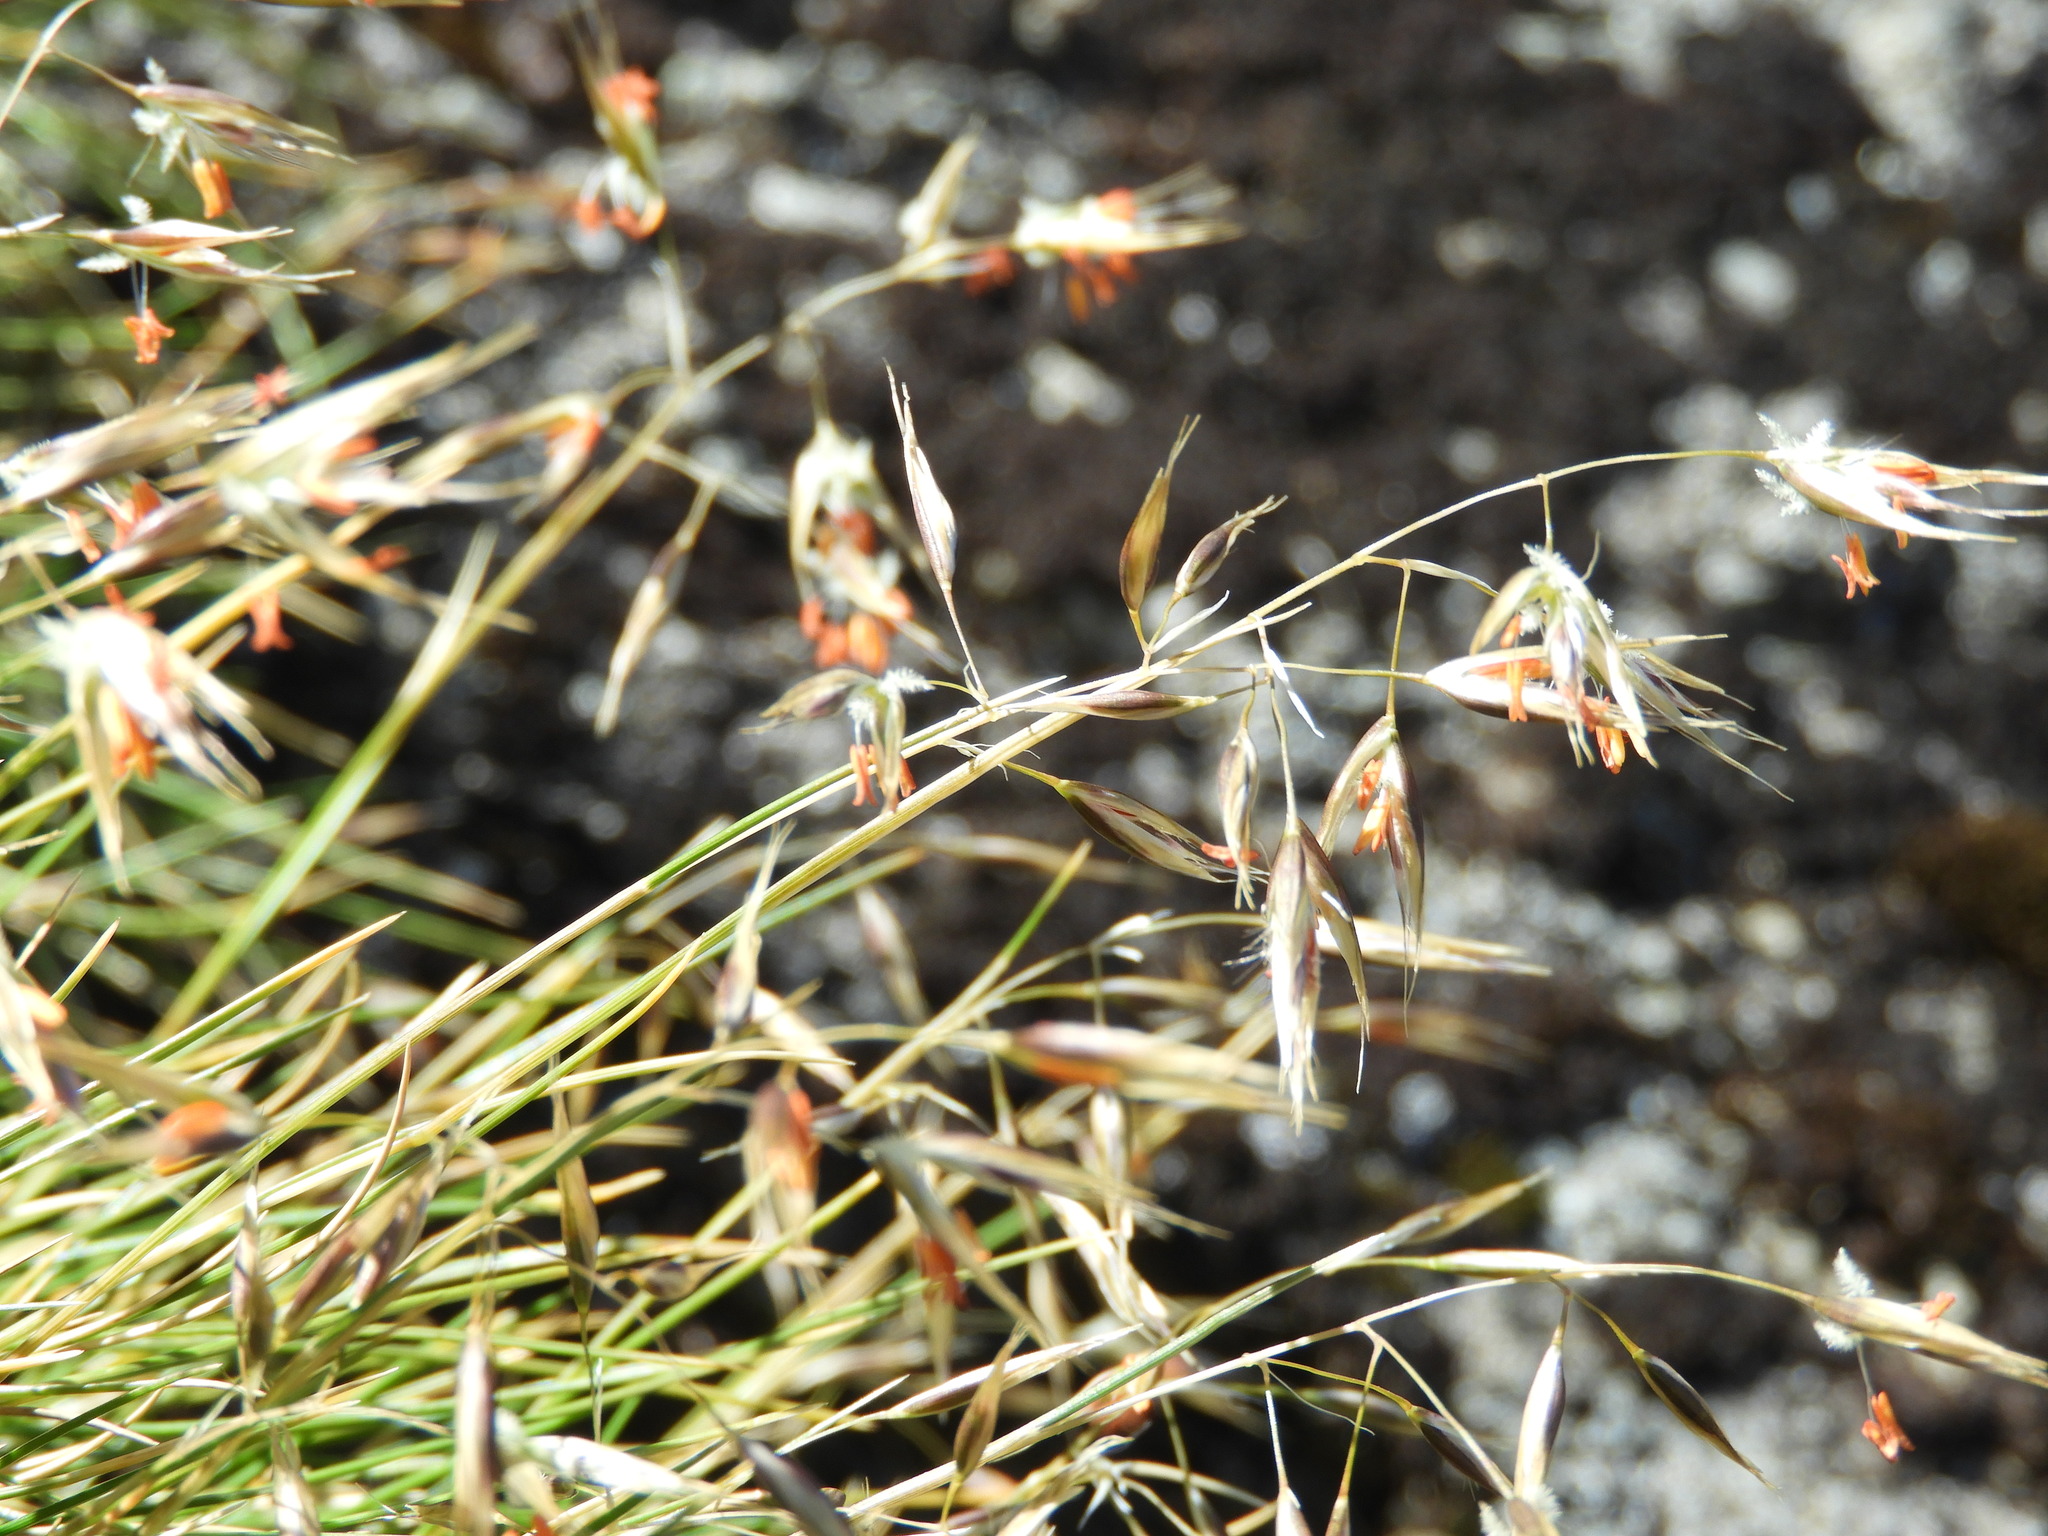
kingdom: Plantae
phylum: Tracheophyta
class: Liliopsida
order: Poales
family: Poaceae
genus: Rytidosperma
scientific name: Rytidosperma setifolium
